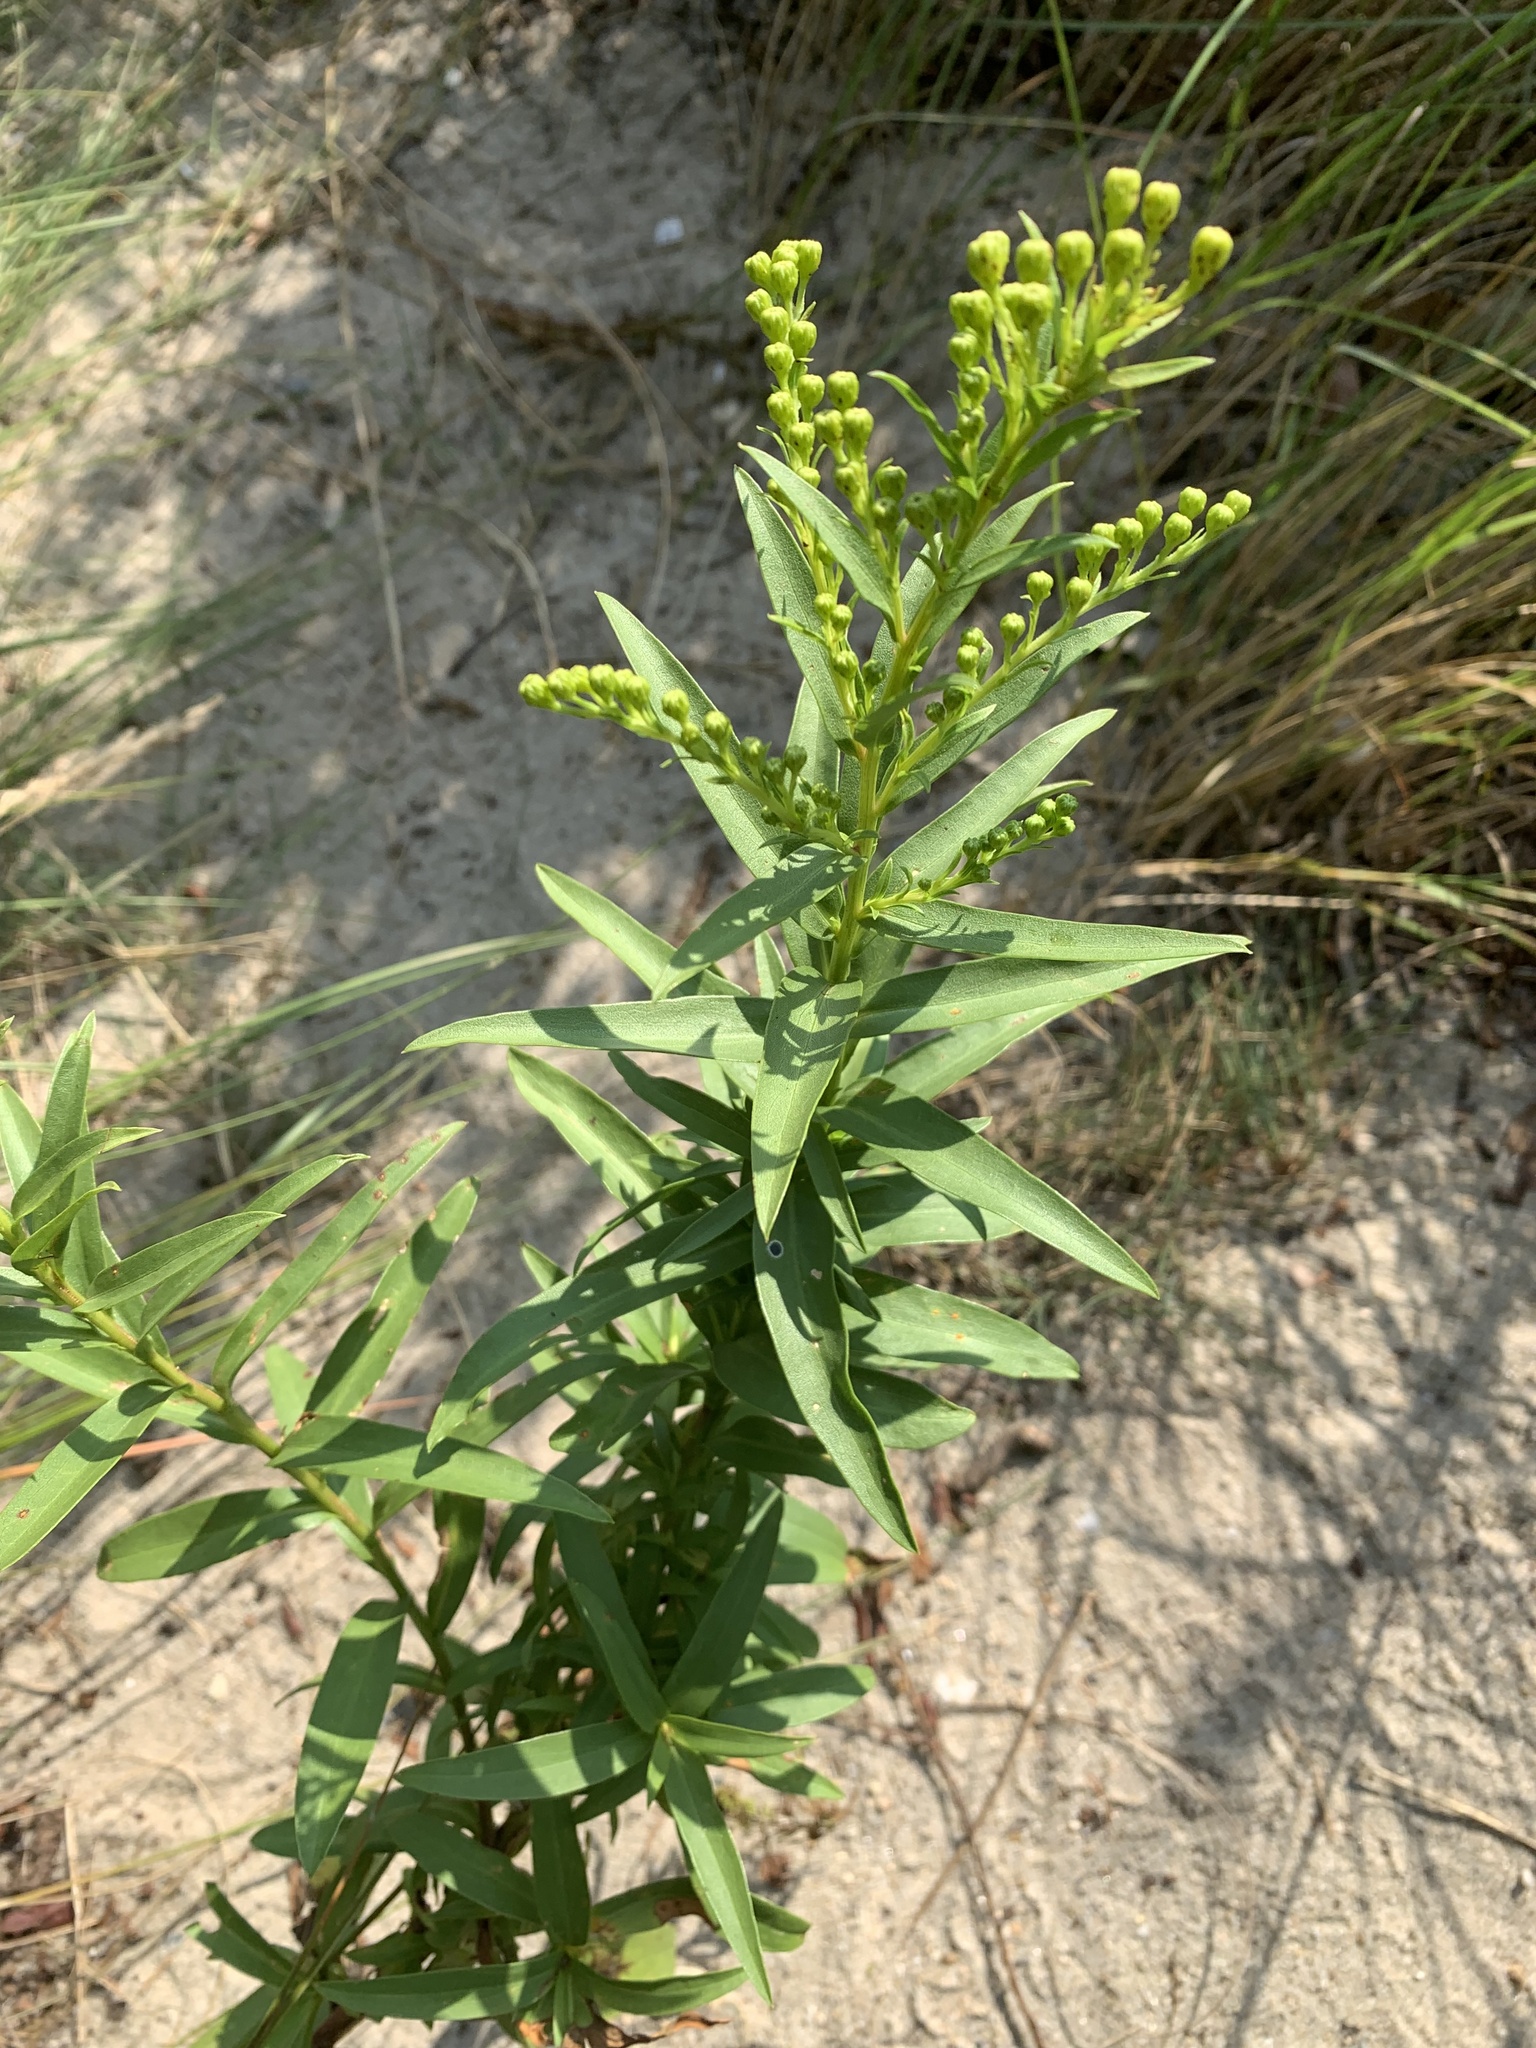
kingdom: Plantae
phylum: Tracheophyta
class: Magnoliopsida
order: Asterales
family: Asteraceae
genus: Solidago
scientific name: Solidago sempervirens
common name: Salt-marsh goldenrod
